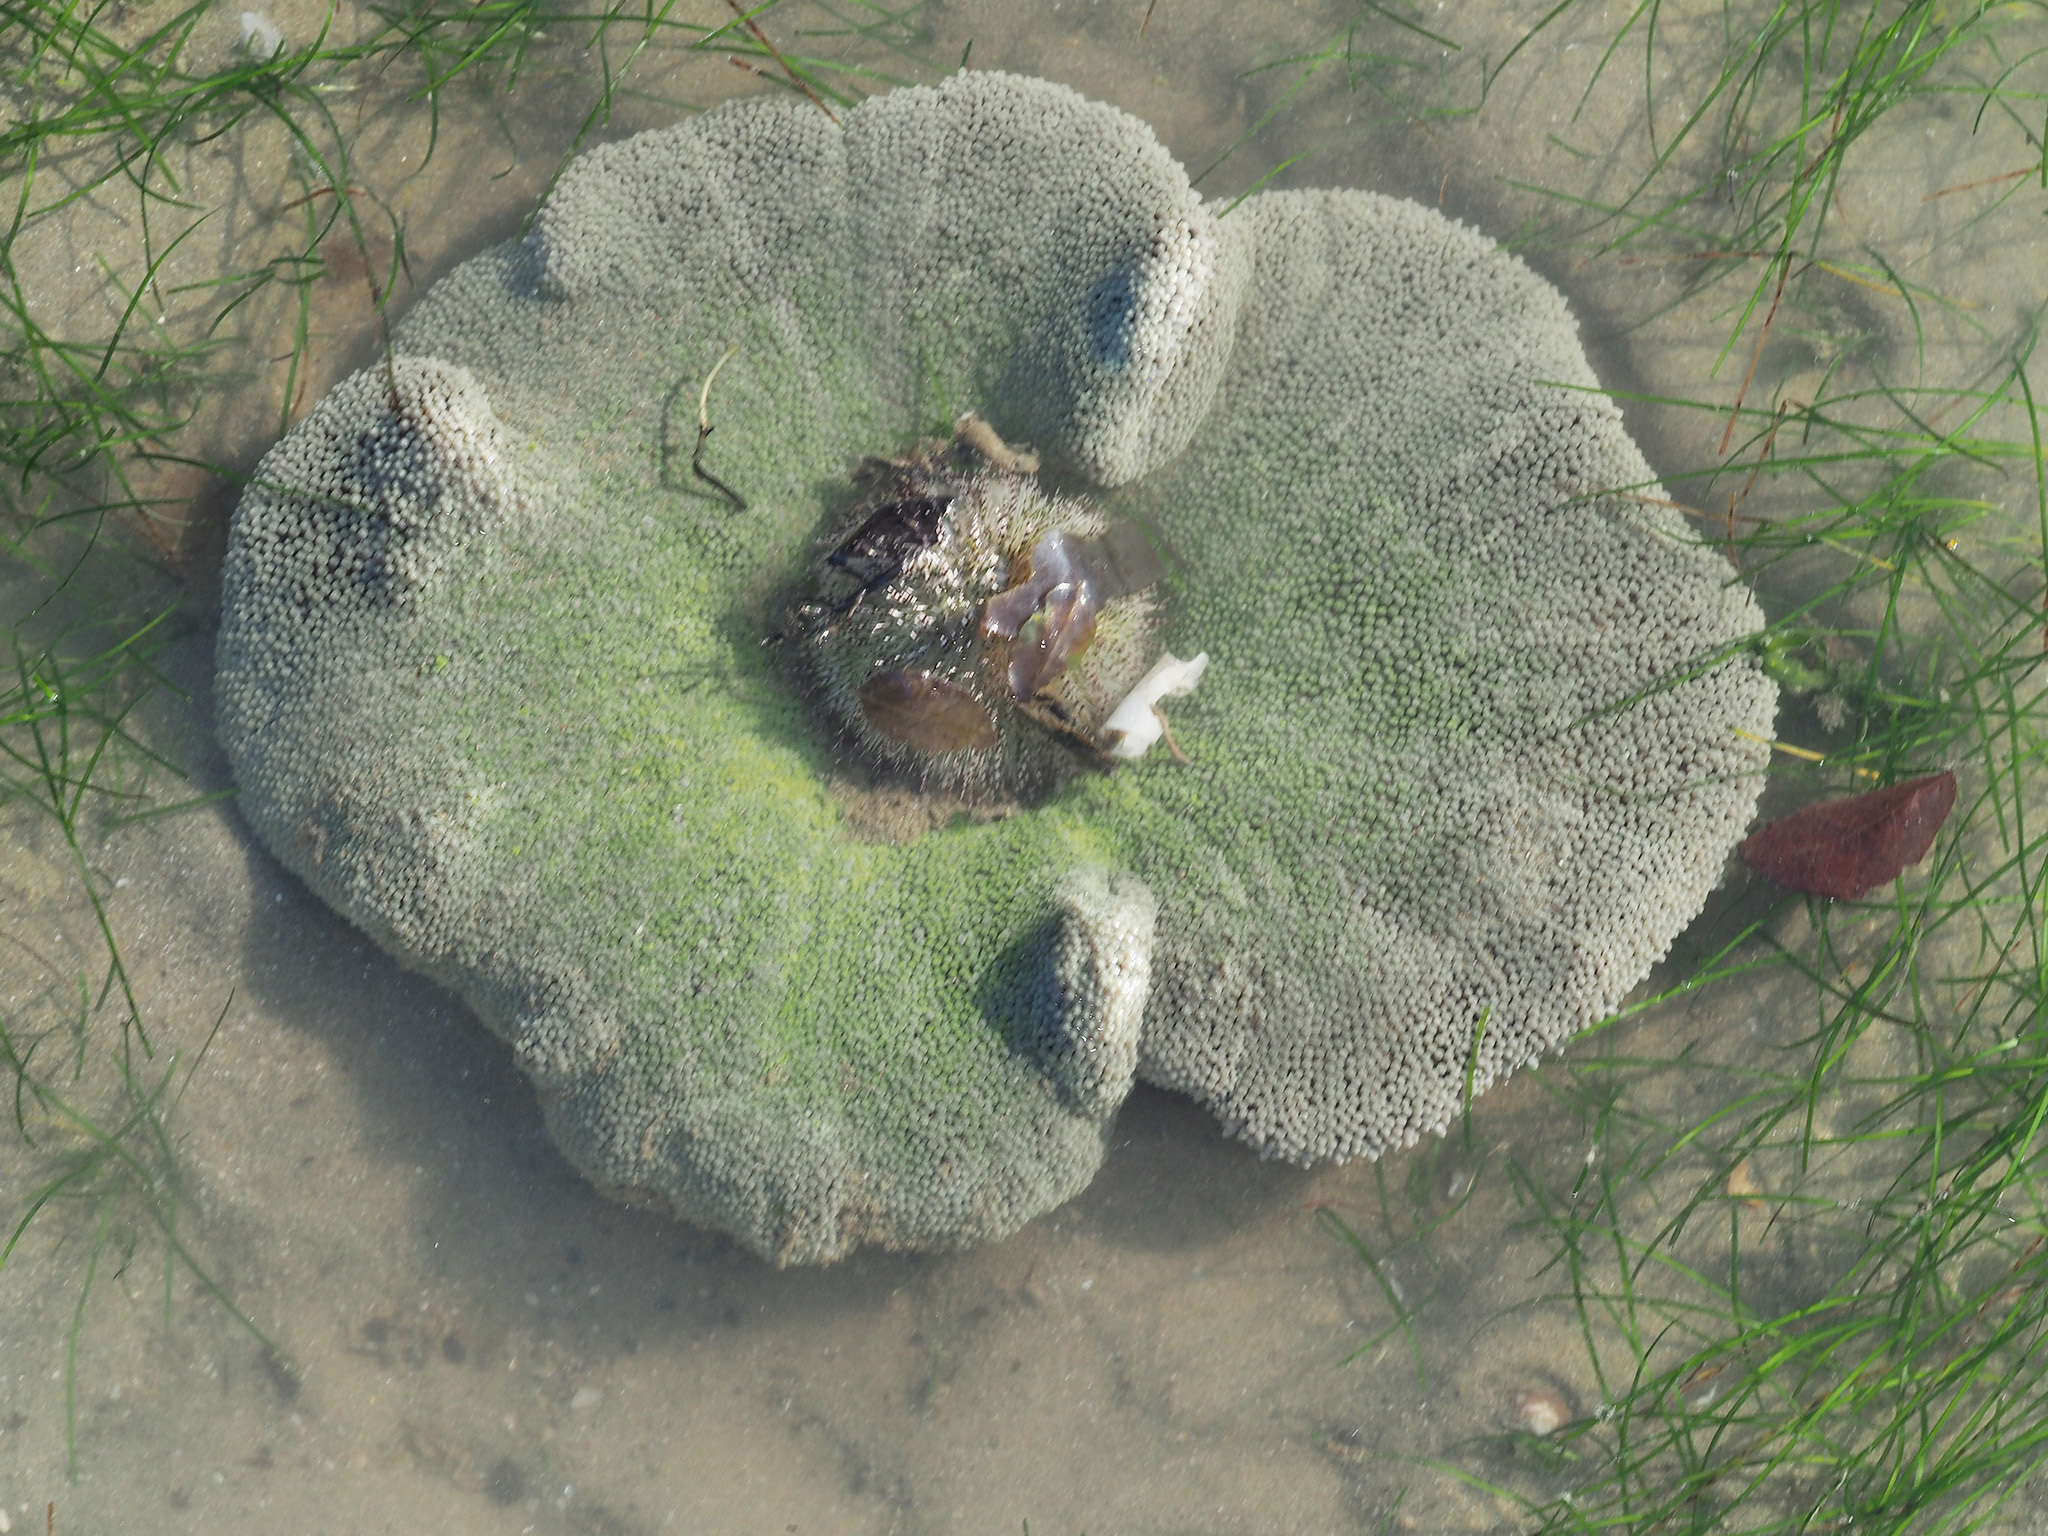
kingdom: Animalia
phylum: Cnidaria
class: Anthozoa
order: Actiniaria
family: Stichodactylidae
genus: Stichodactyla
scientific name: Stichodactyla haddoni
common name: Haddon's sea anemone
